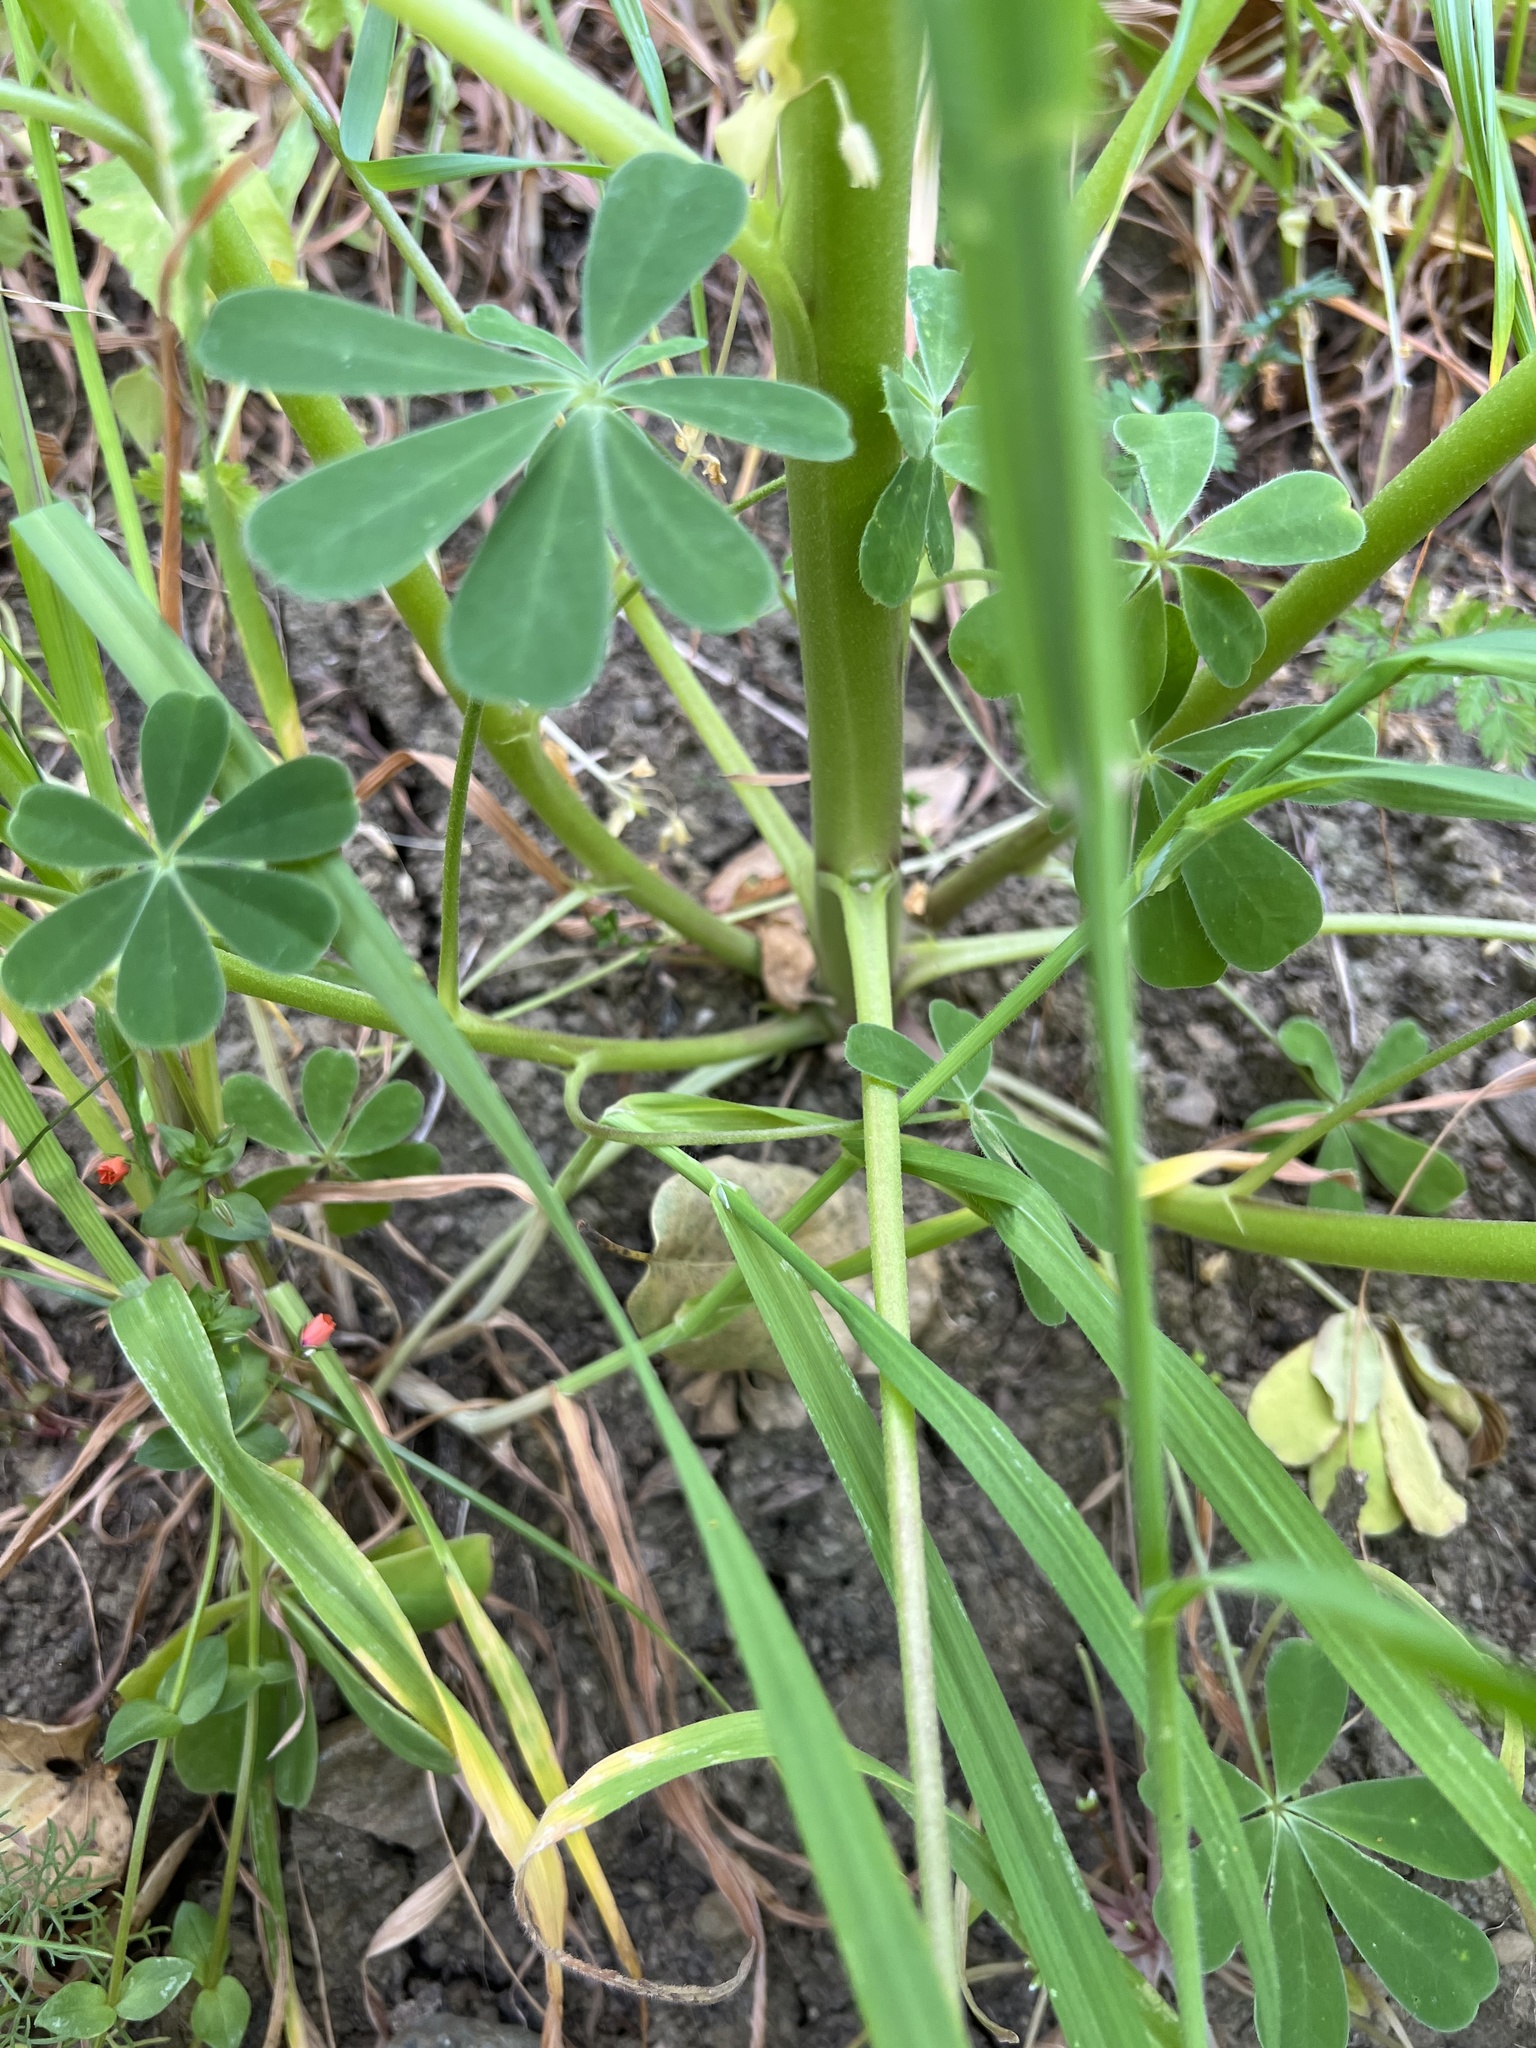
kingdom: Plantae
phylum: Tracheophyta
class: Magnoliopsida
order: Fabales
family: Fabaceae
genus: Lupinus
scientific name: Lupinus succulentus
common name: Arroyo lupine
